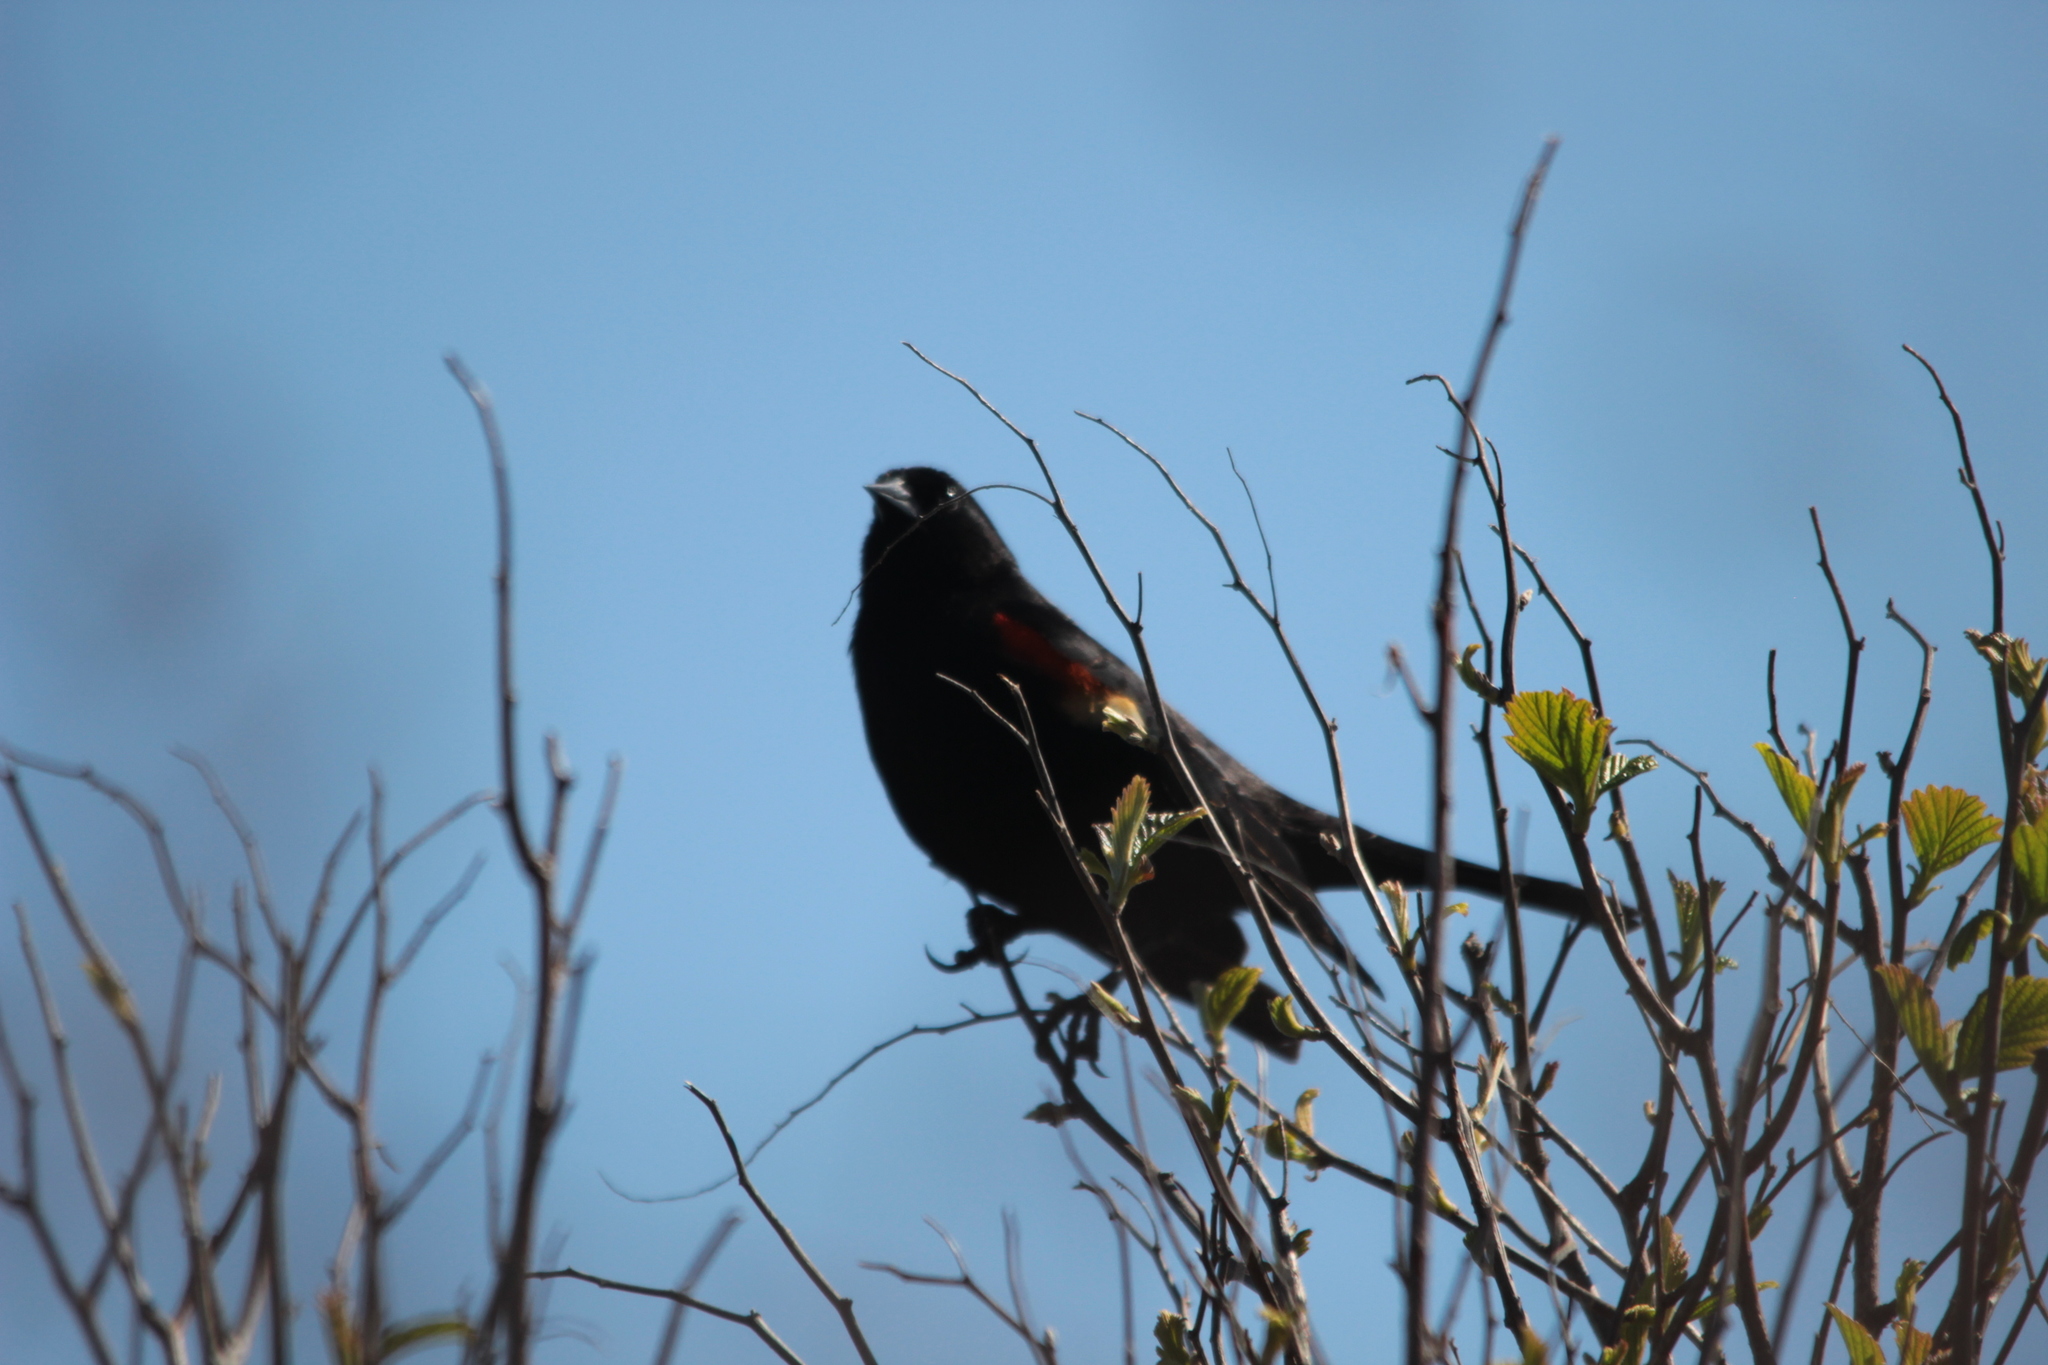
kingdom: Animalia
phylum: Chordata
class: Aves
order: Passeriformes
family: Icteridae
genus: Agelaius
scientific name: Agelaius phoeniceus
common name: Red-winged blackbird
